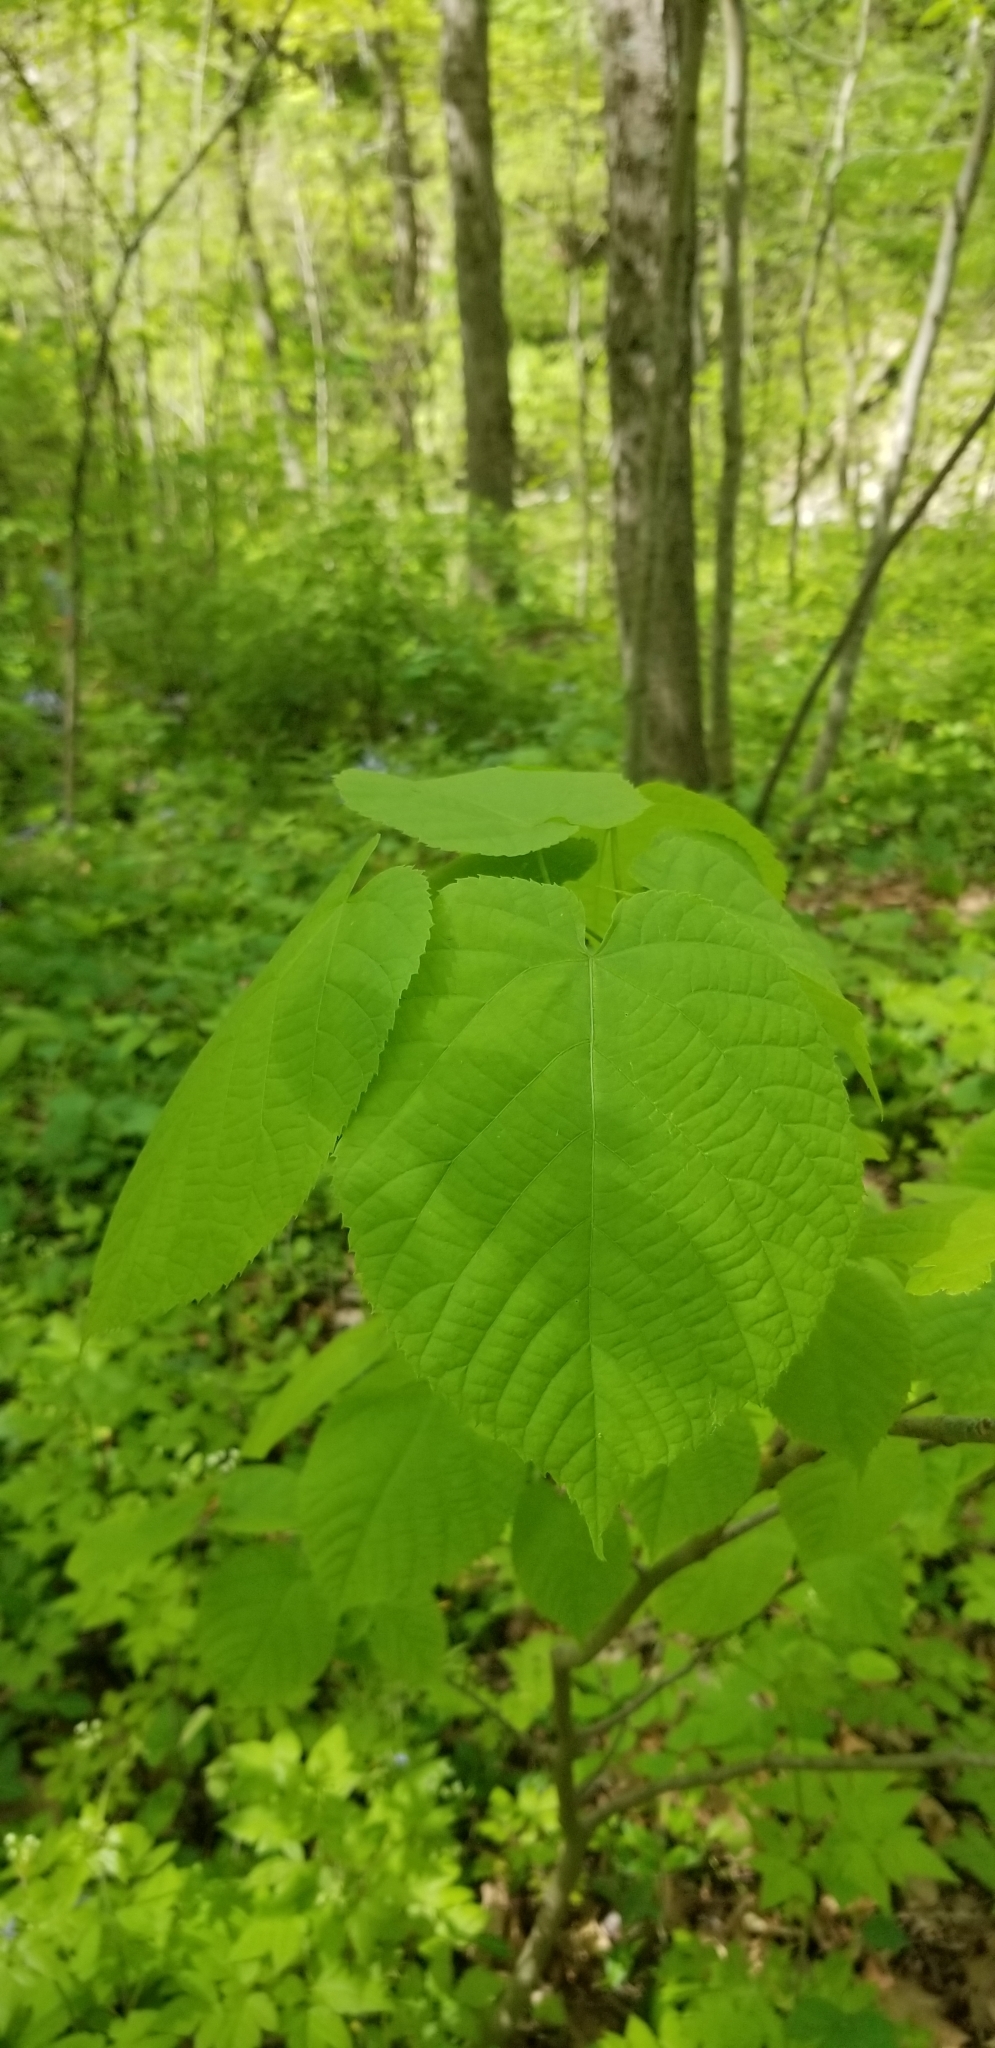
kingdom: Plantae
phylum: Tracheophyta
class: Magnoliopsida
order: Malvales
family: Malvaceae
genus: Tilia
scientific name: Tilia americana
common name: Basswood
